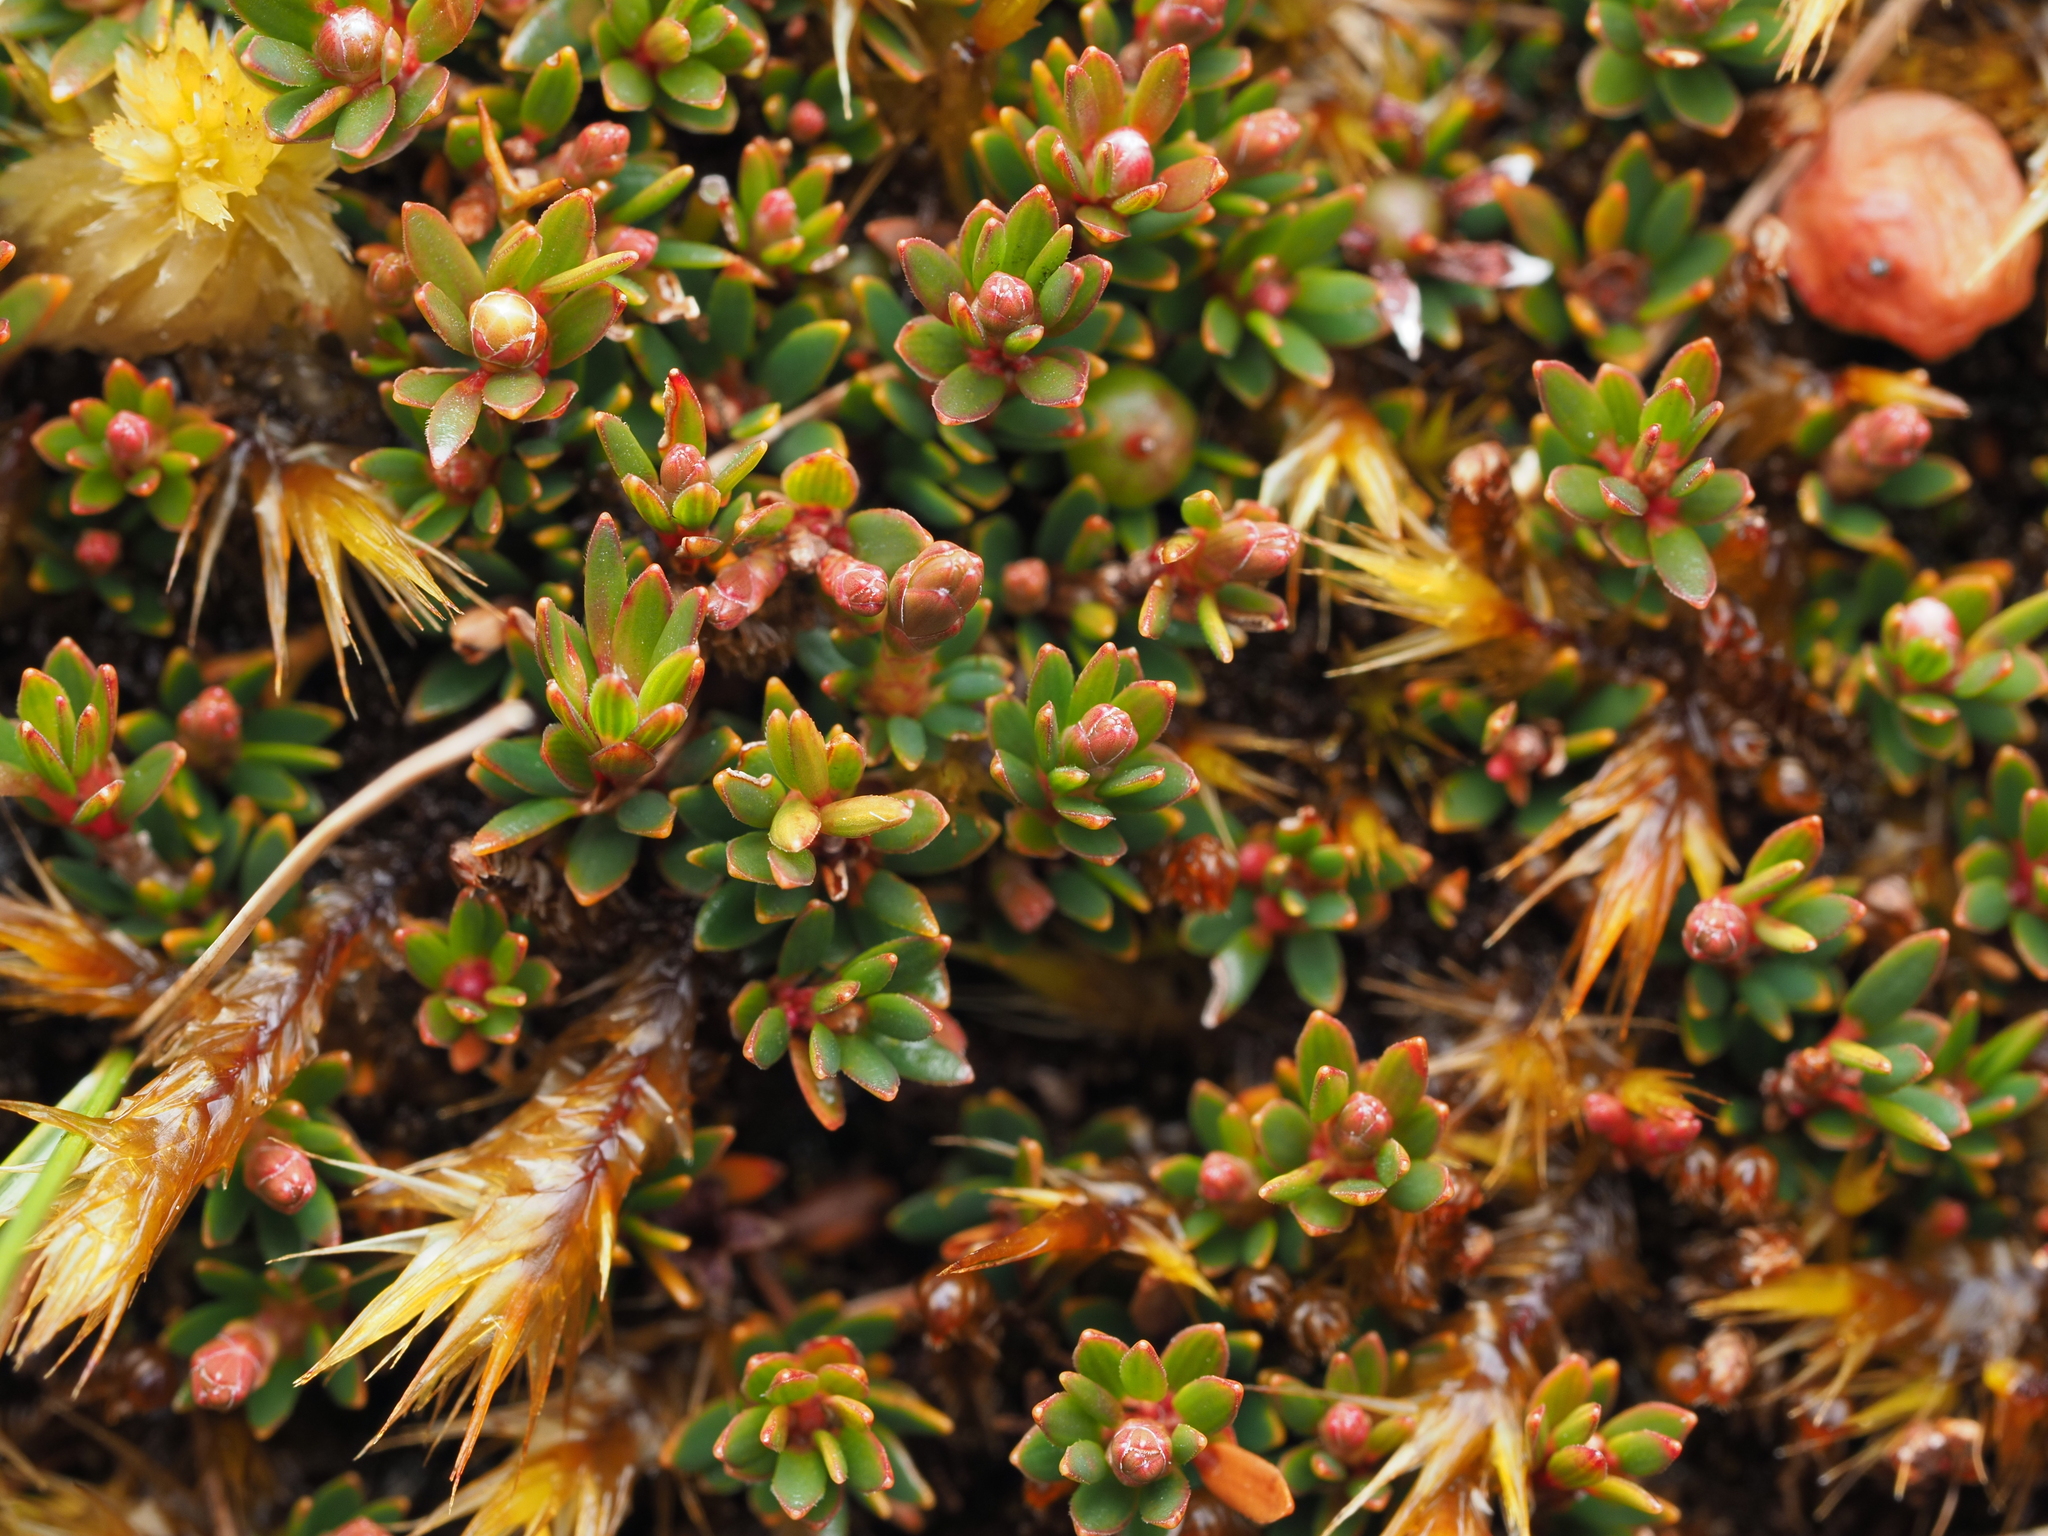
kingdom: Plantae
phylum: Tracheophyta
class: Magnoliopsida
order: Ericales
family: Ericaceae
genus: Pentachondra
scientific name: Pentachondra pumila
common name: Carpet-heath
